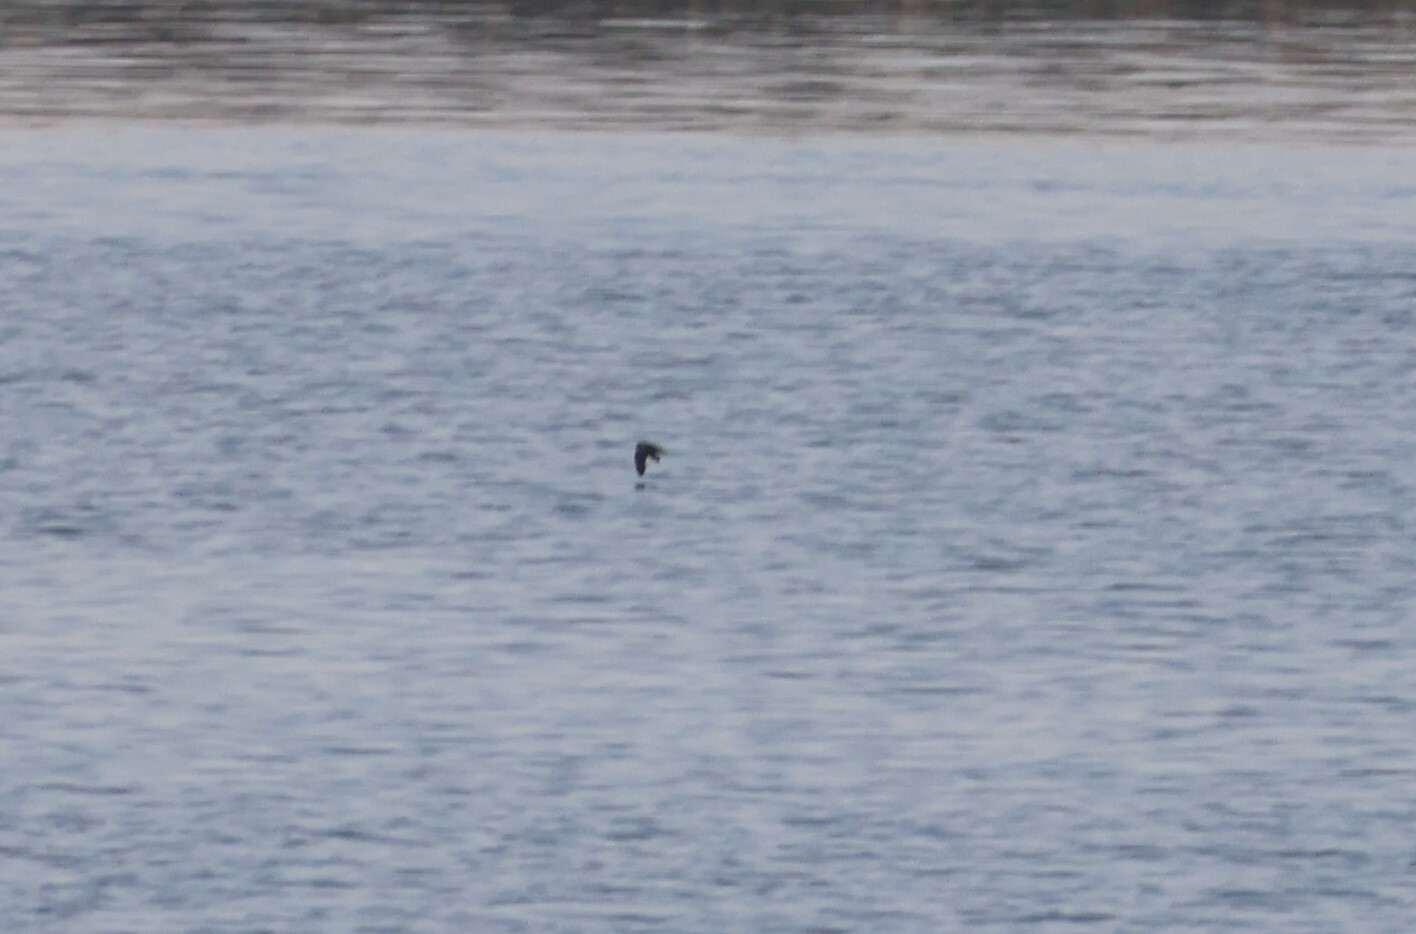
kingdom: Animalia
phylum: Chordata
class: Aves
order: Procellariiformes
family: Hydrobatidae
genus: Oceanodroma
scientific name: Oceanodroma microsoma
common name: Least storm-petrel
